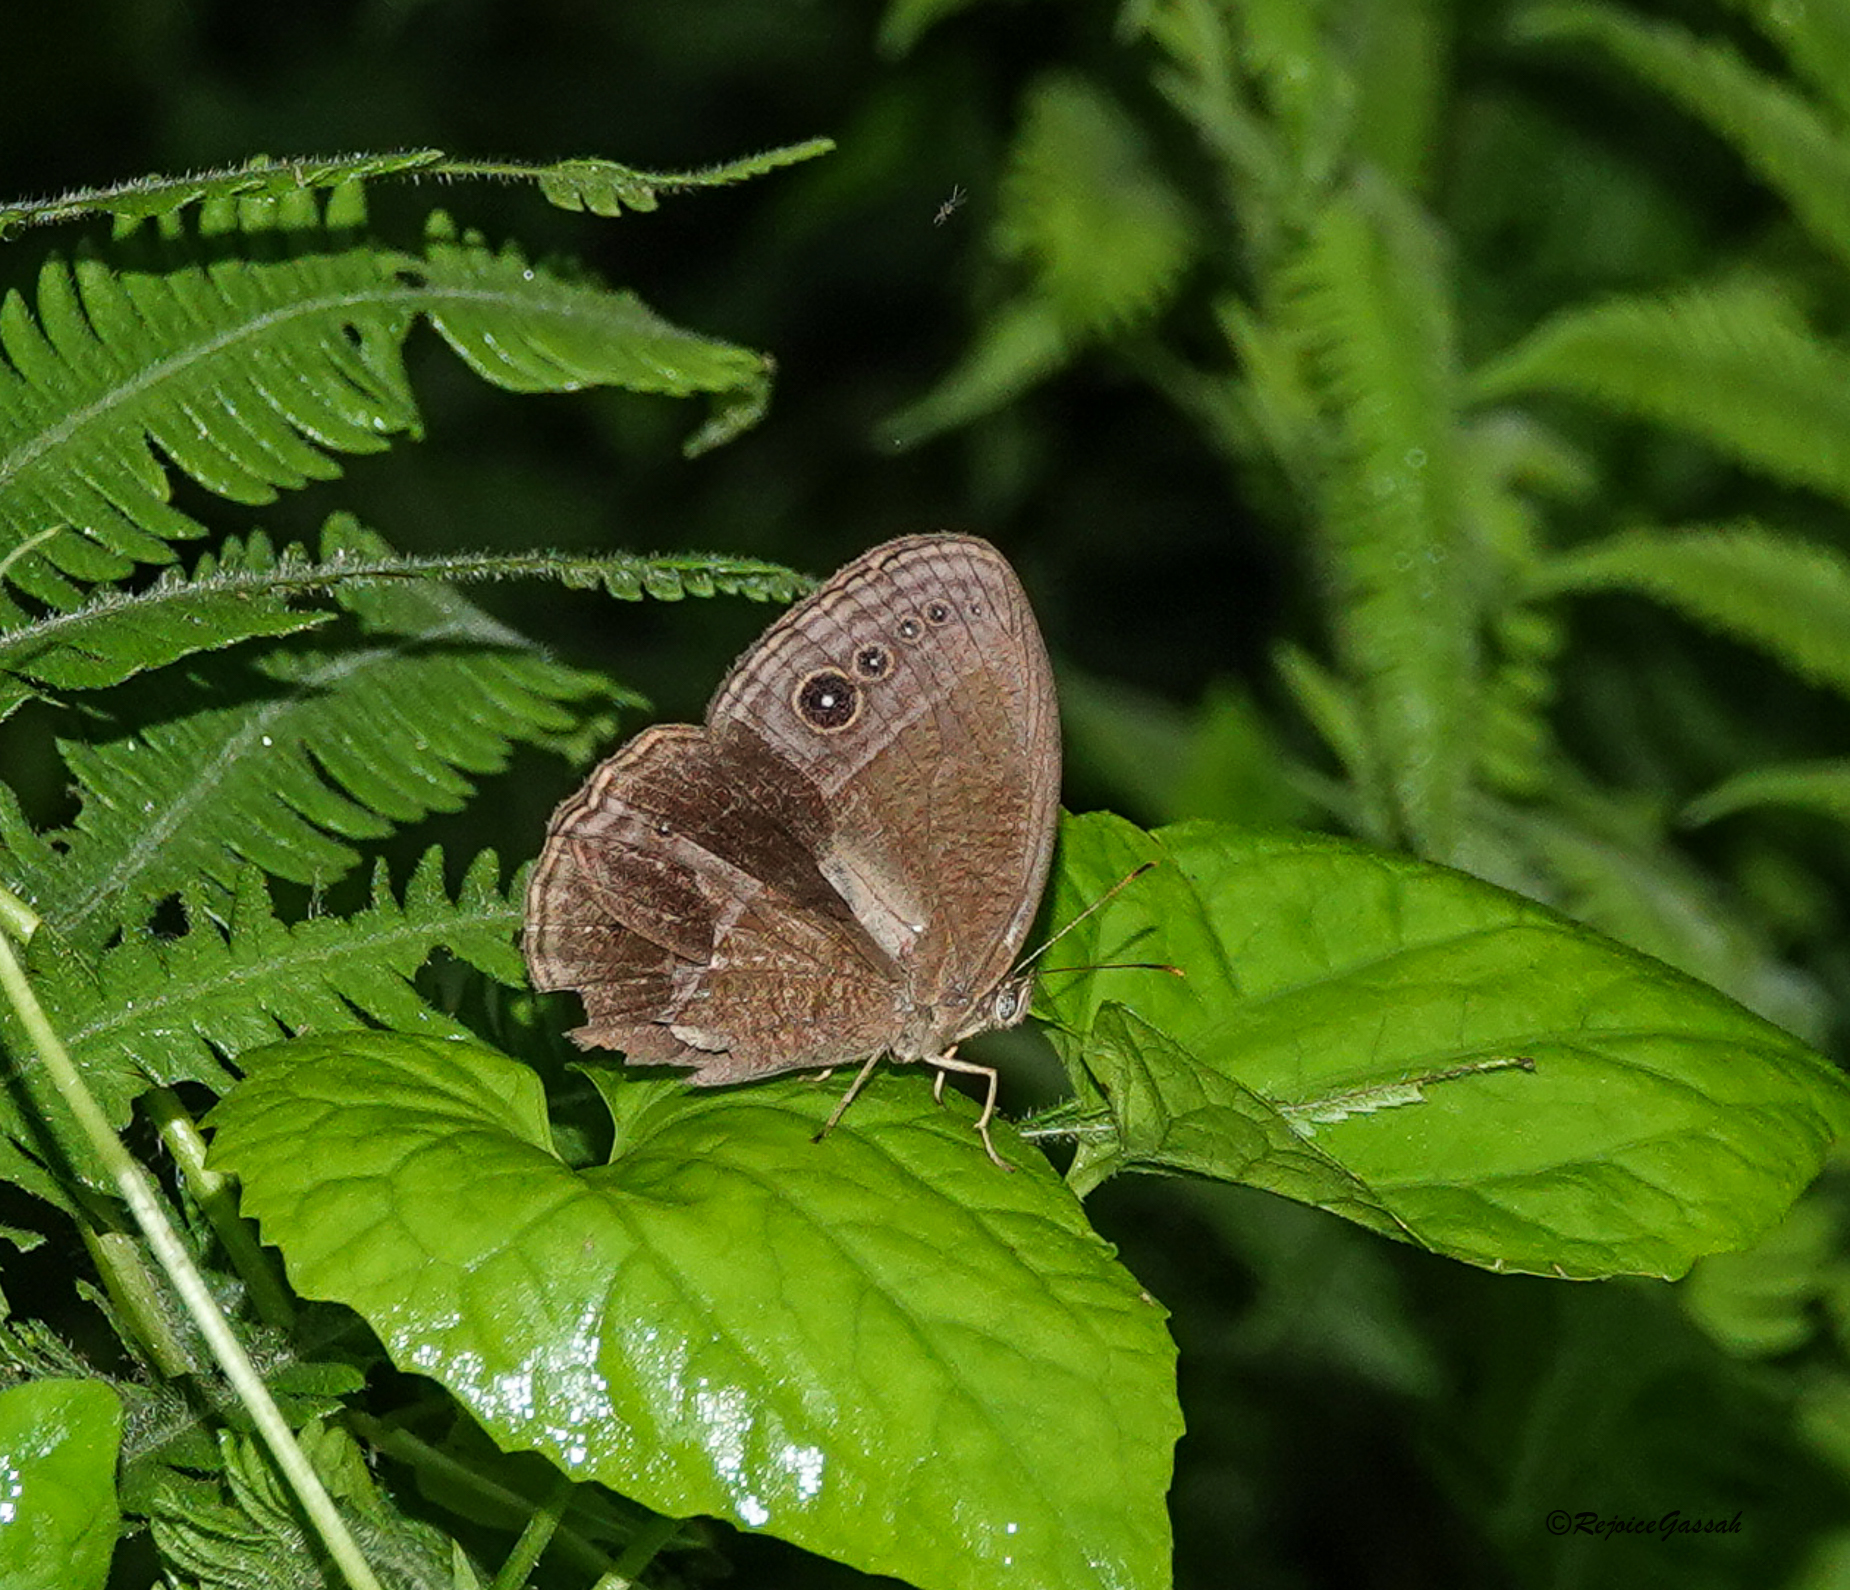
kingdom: Animalia
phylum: Arthropoda
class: Insecta
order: Lepidoptera
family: Nymphalidae
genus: Mycalesis
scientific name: Mycalesis Telinga inopia
